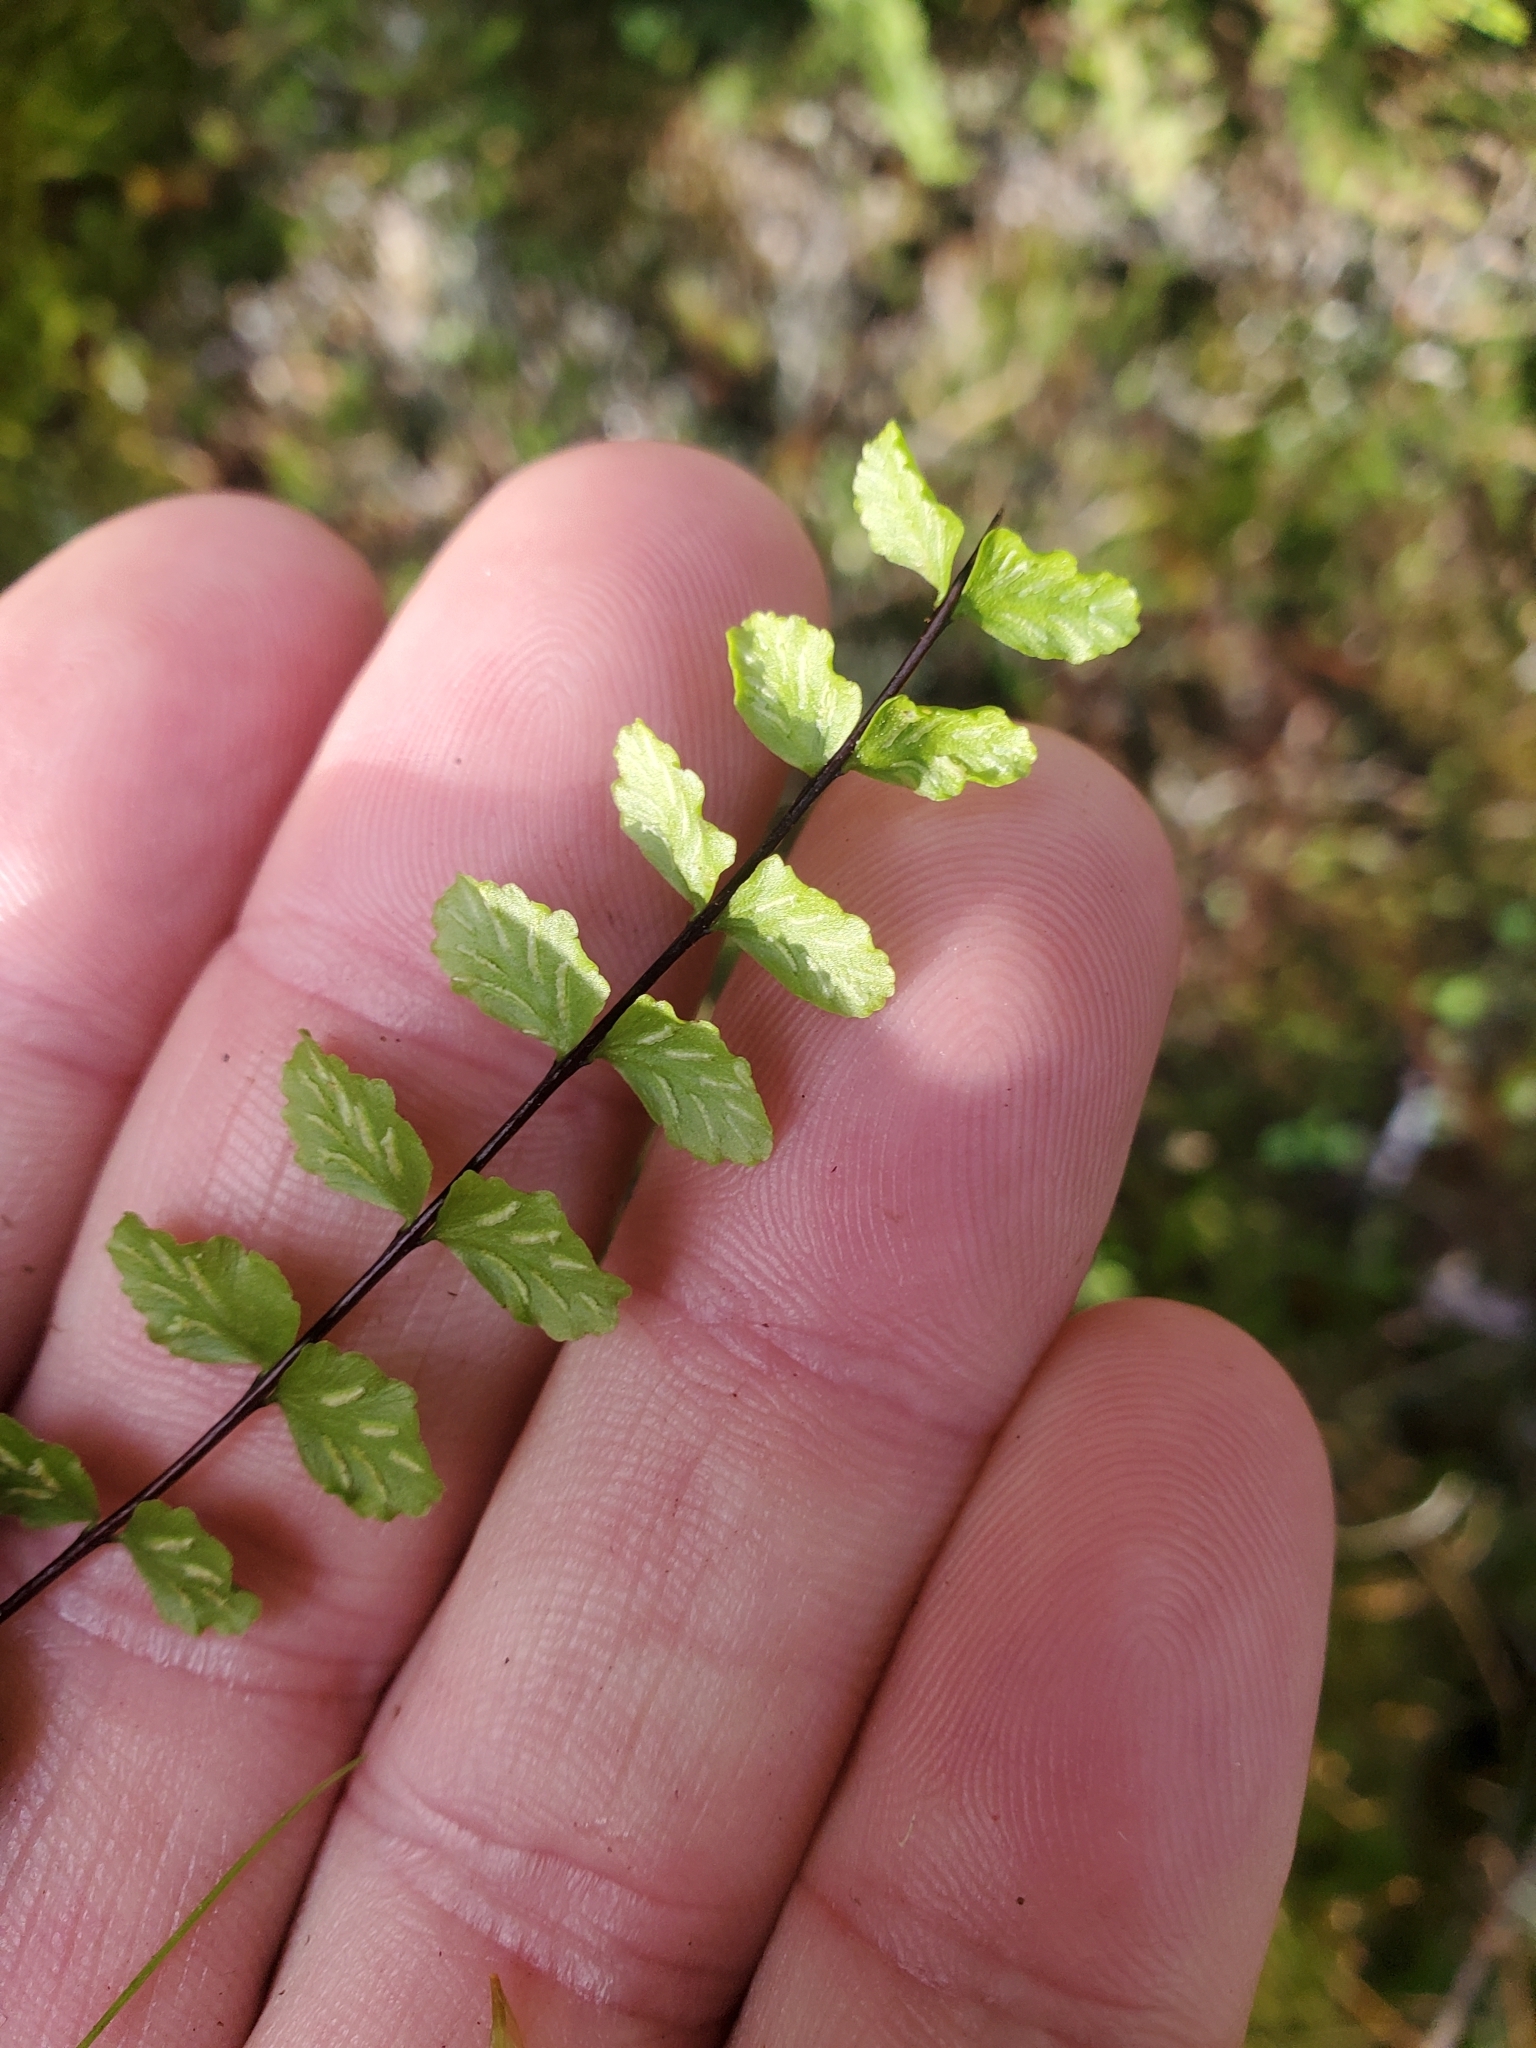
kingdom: Plantae
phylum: Tracheophyta
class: Polypodiopsida
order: Polypodiales
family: Aspleniaceae
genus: Asplenium
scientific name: Asplenium trichomanes
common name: Maidenhair spleenwort
